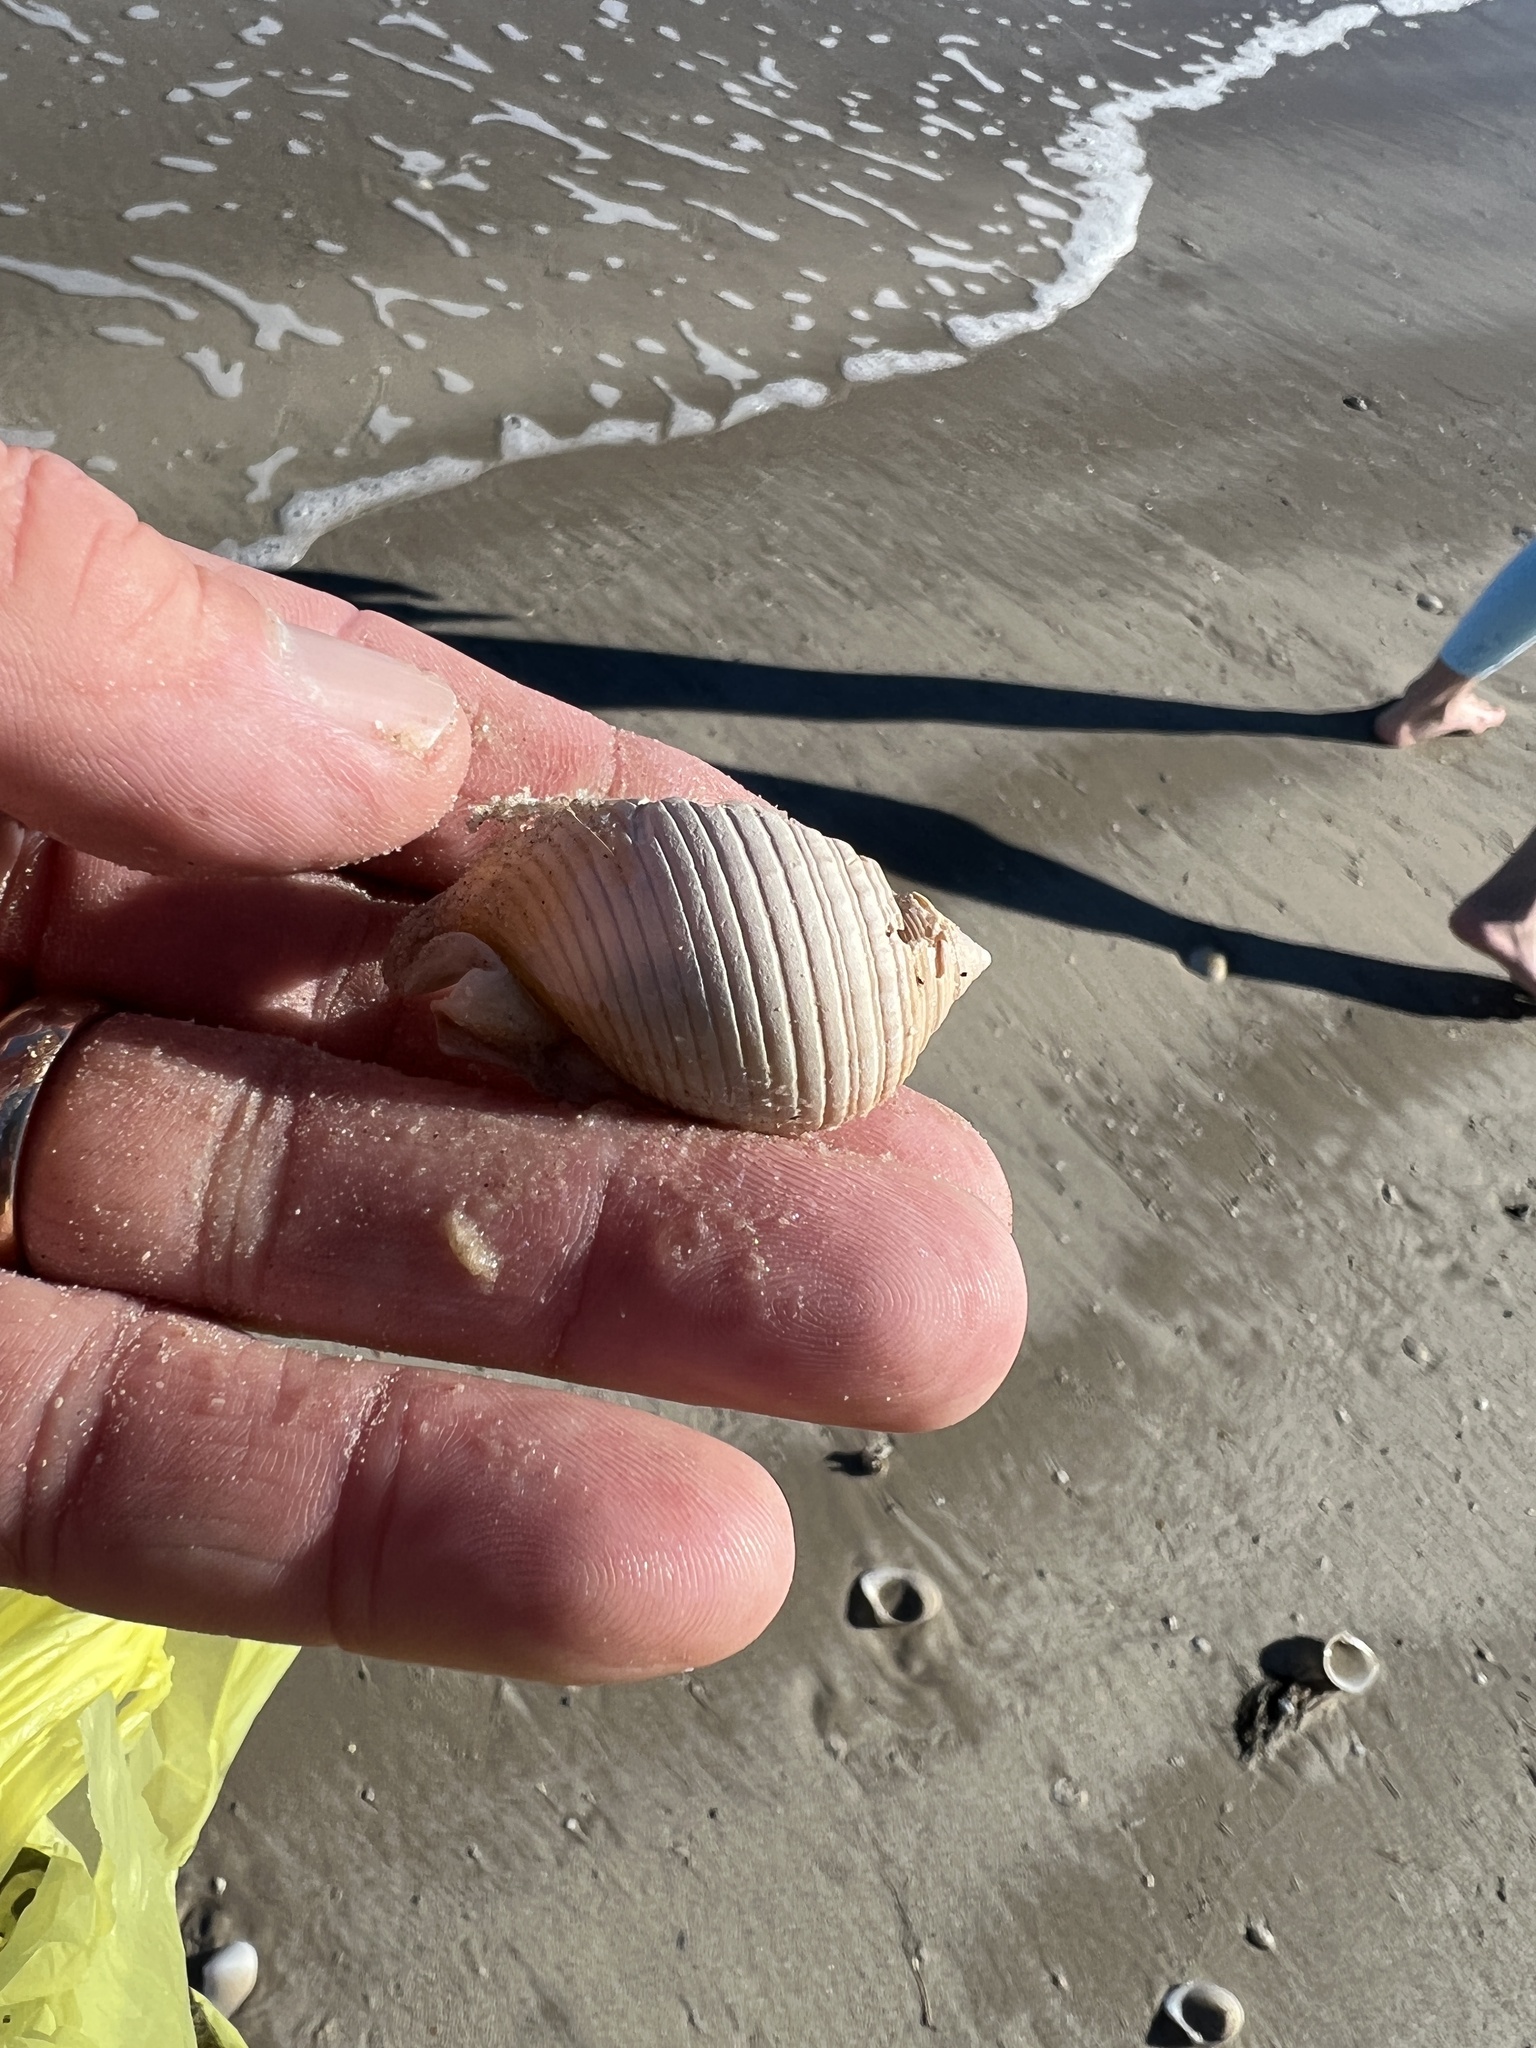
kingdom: Animalia
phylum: Mollusca
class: Gastropoda
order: Littorinimorpha
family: Cassidae
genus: Semicassis
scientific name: Semicassis granulata
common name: Scotch bonnet
